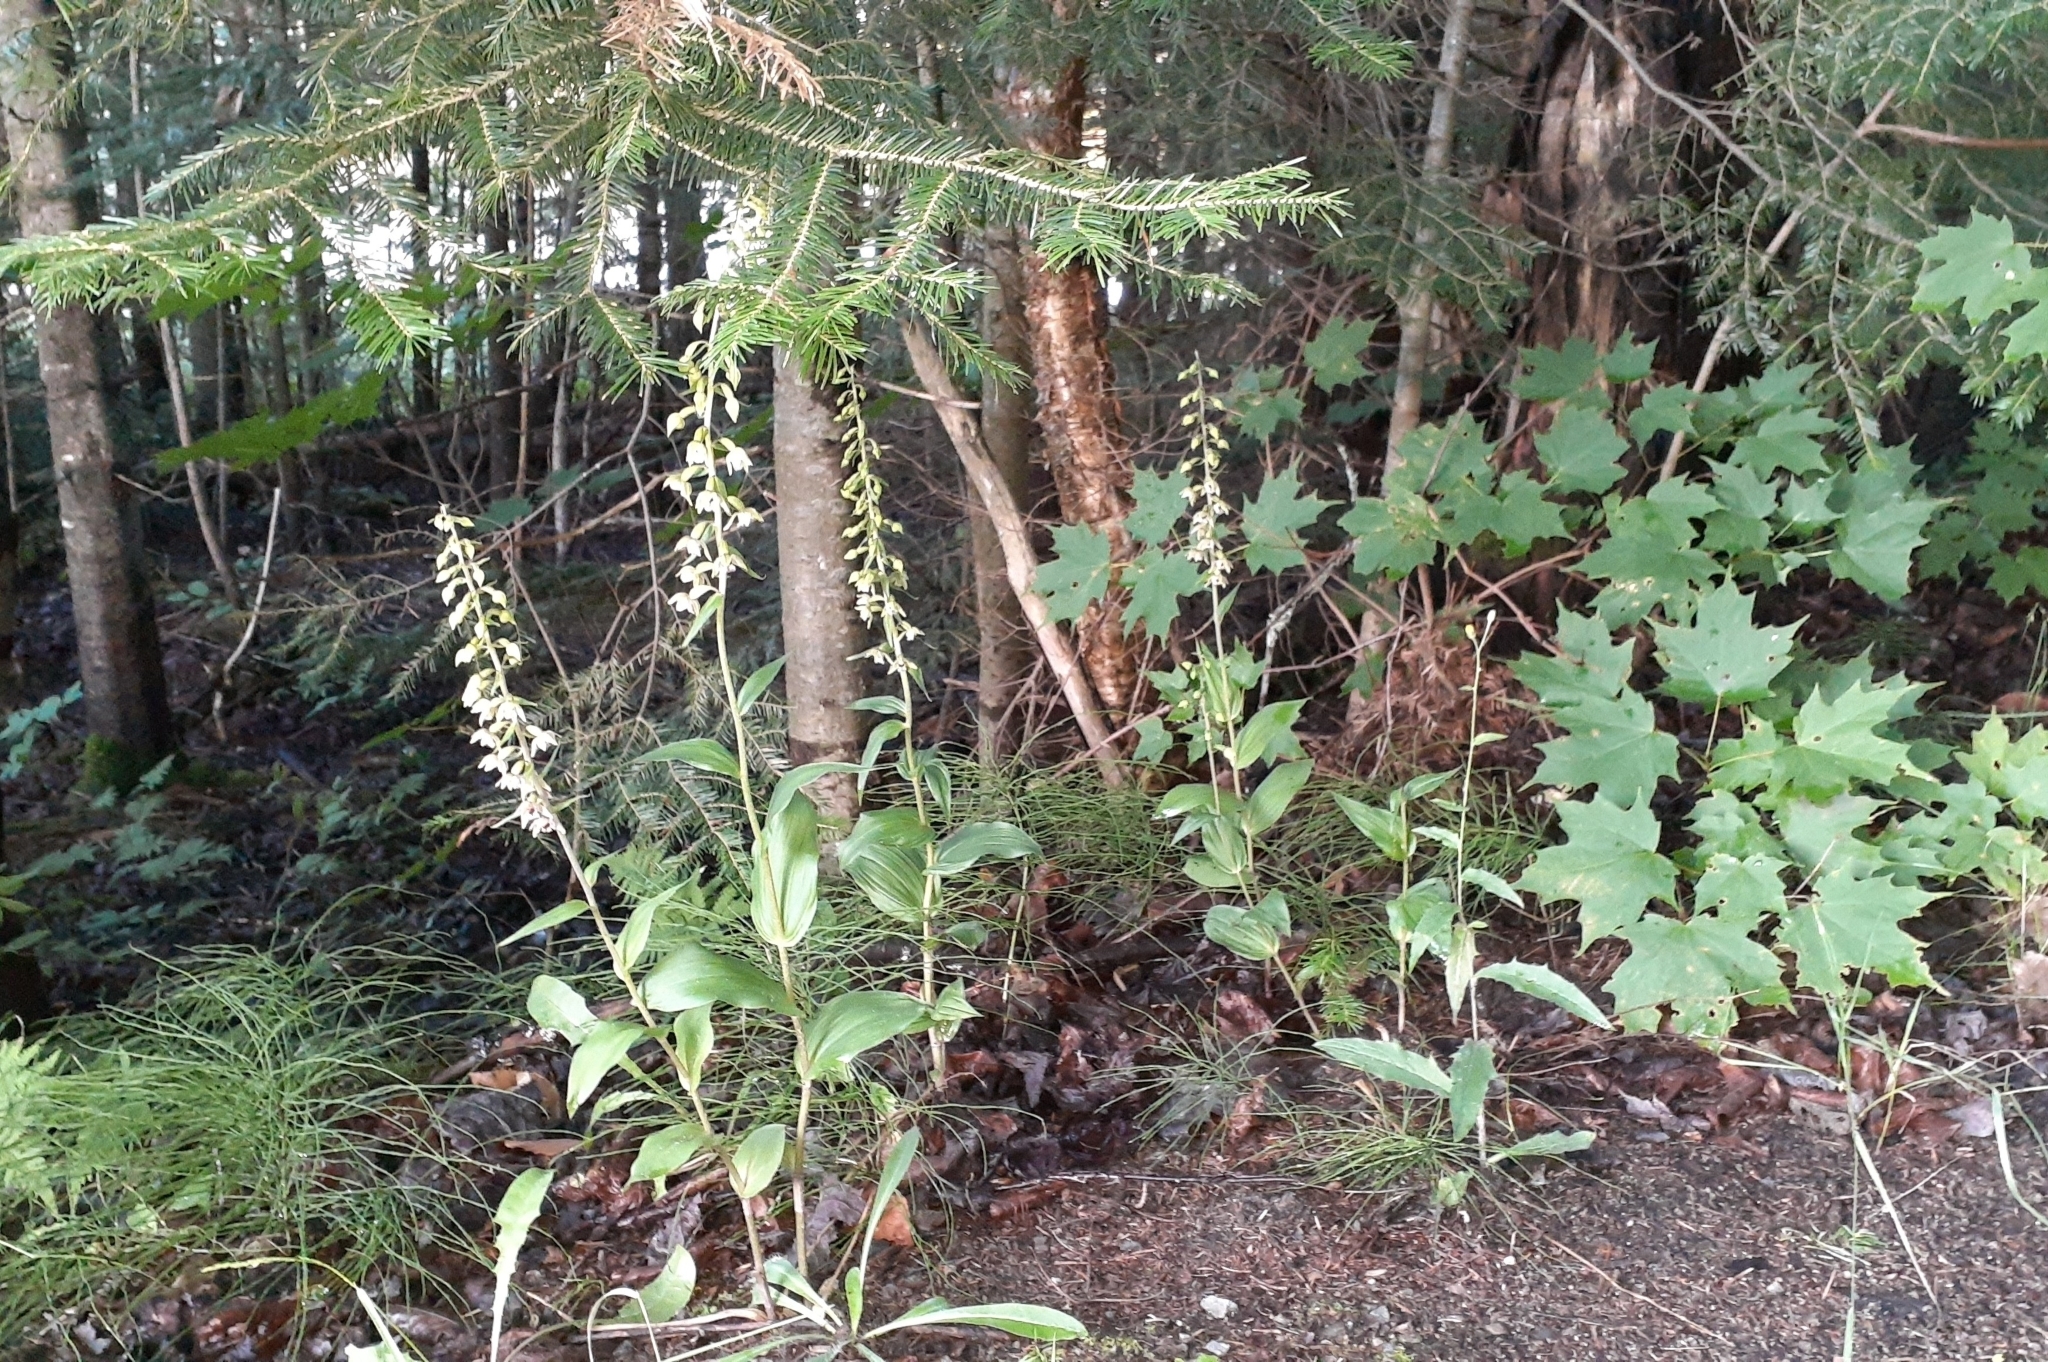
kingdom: Plantae
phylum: Tracheophyta
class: Liliopsida
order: Asparagales
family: Orchidaceae
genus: Epipactis
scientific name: Epipactis helleborine
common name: Broad-leaved helleborine
